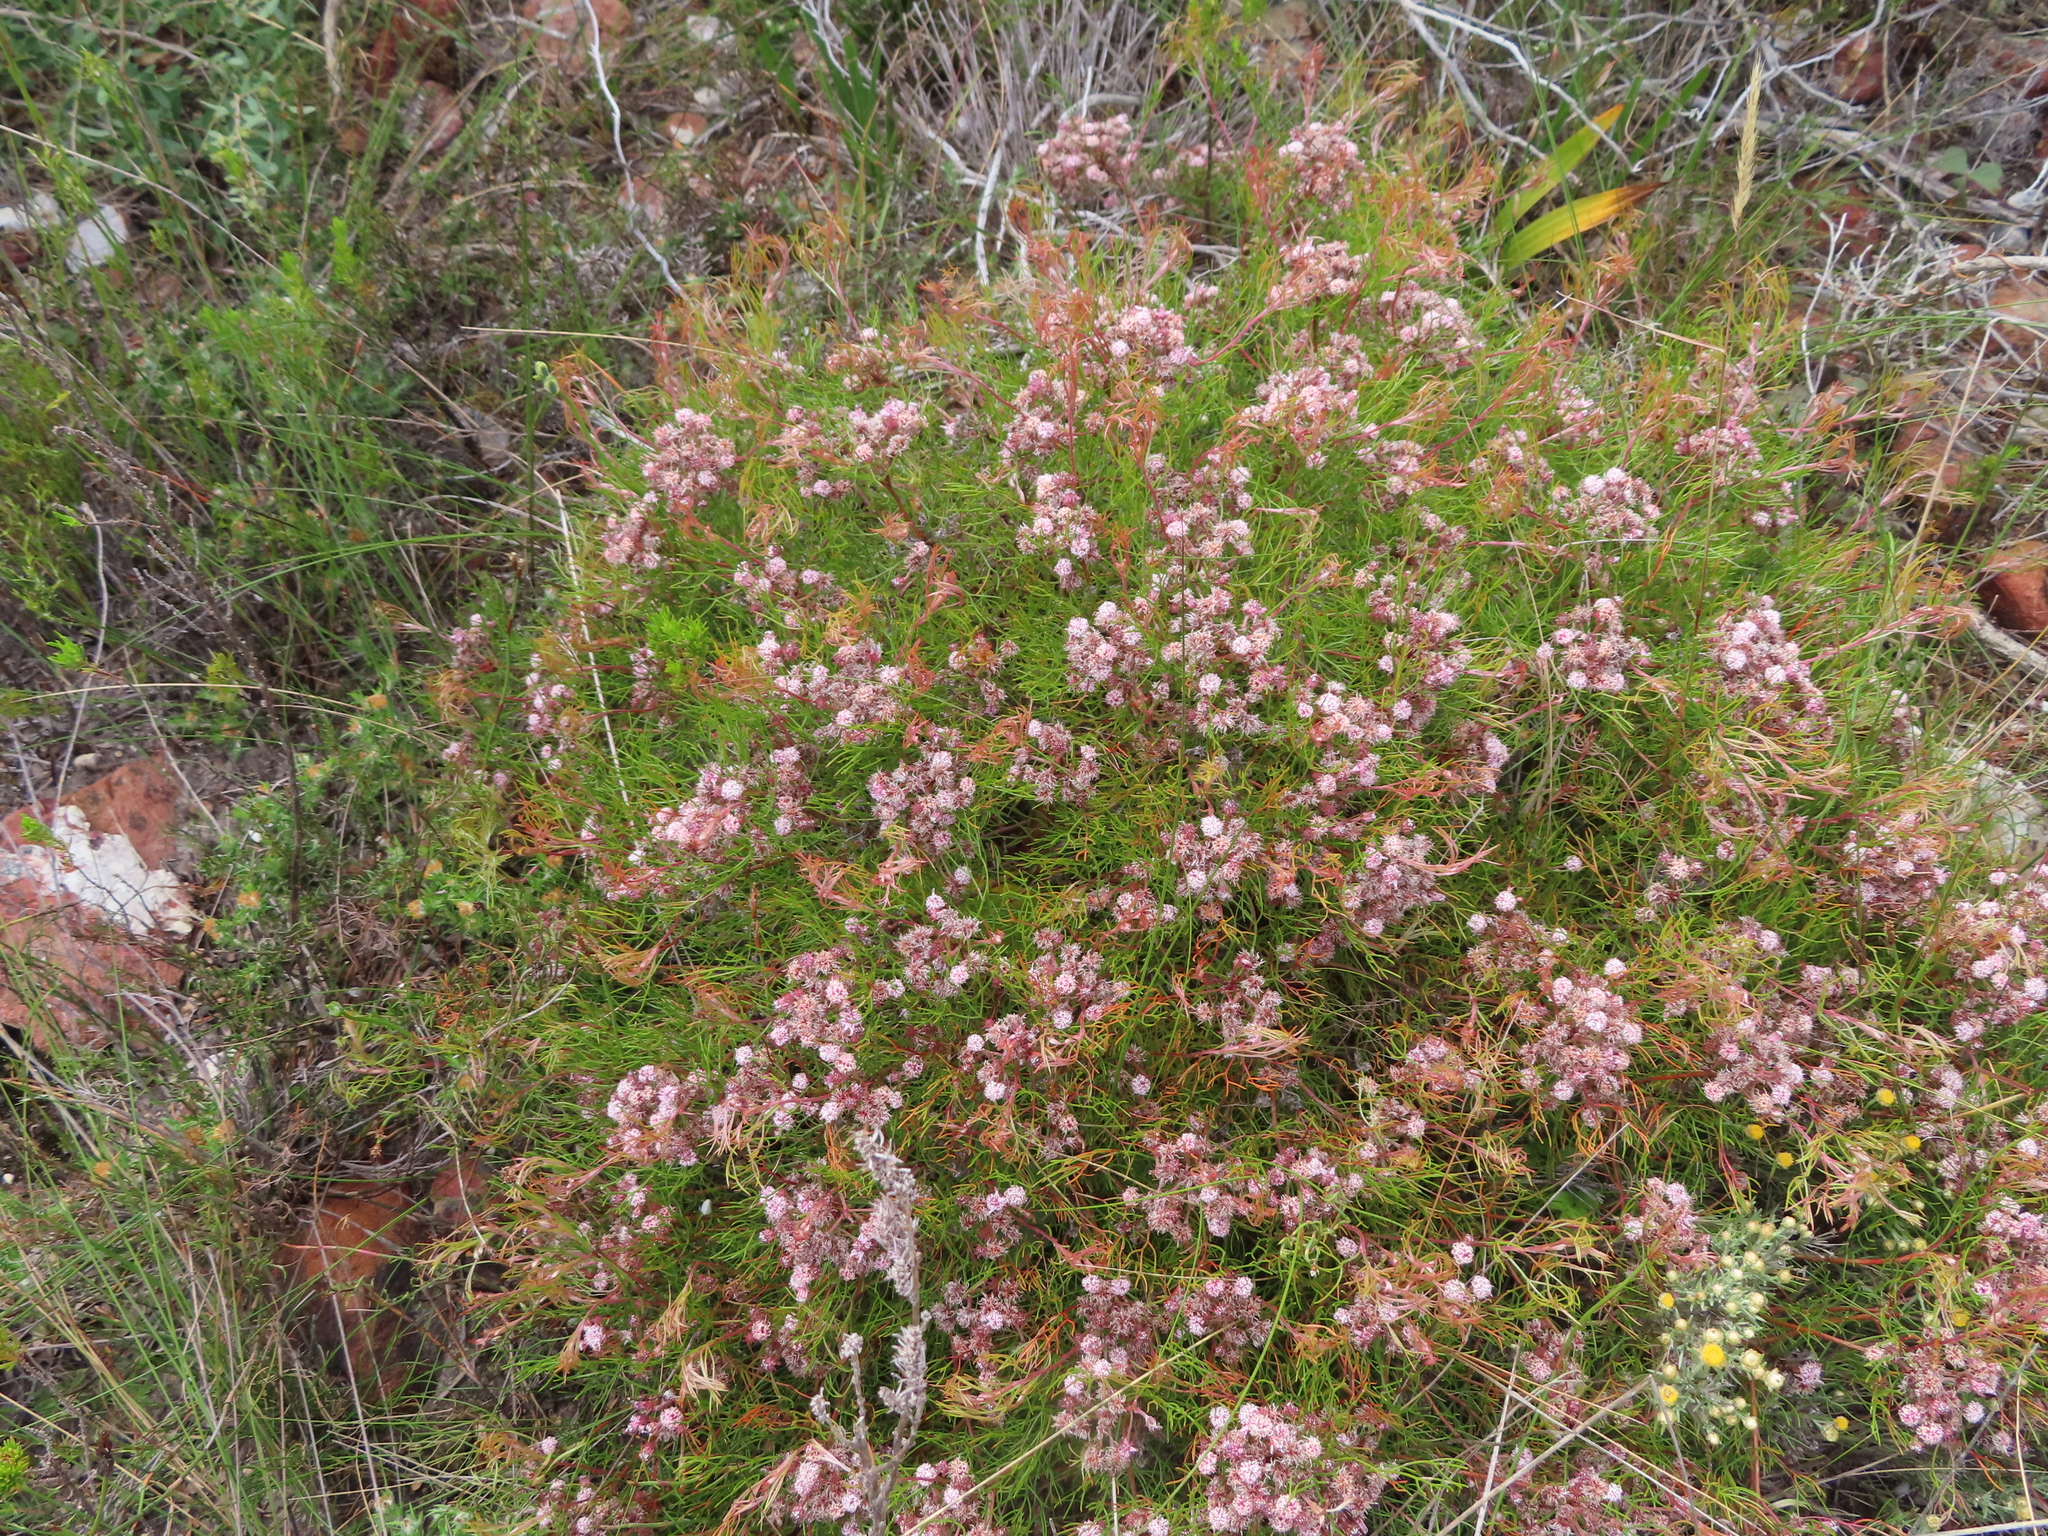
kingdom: Plantae
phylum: Tracheophyta
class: Magnoliopsida
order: Proteales
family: Proteaceae
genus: Serruria
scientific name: Serruria fasciflora
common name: Common pin spiderhead
